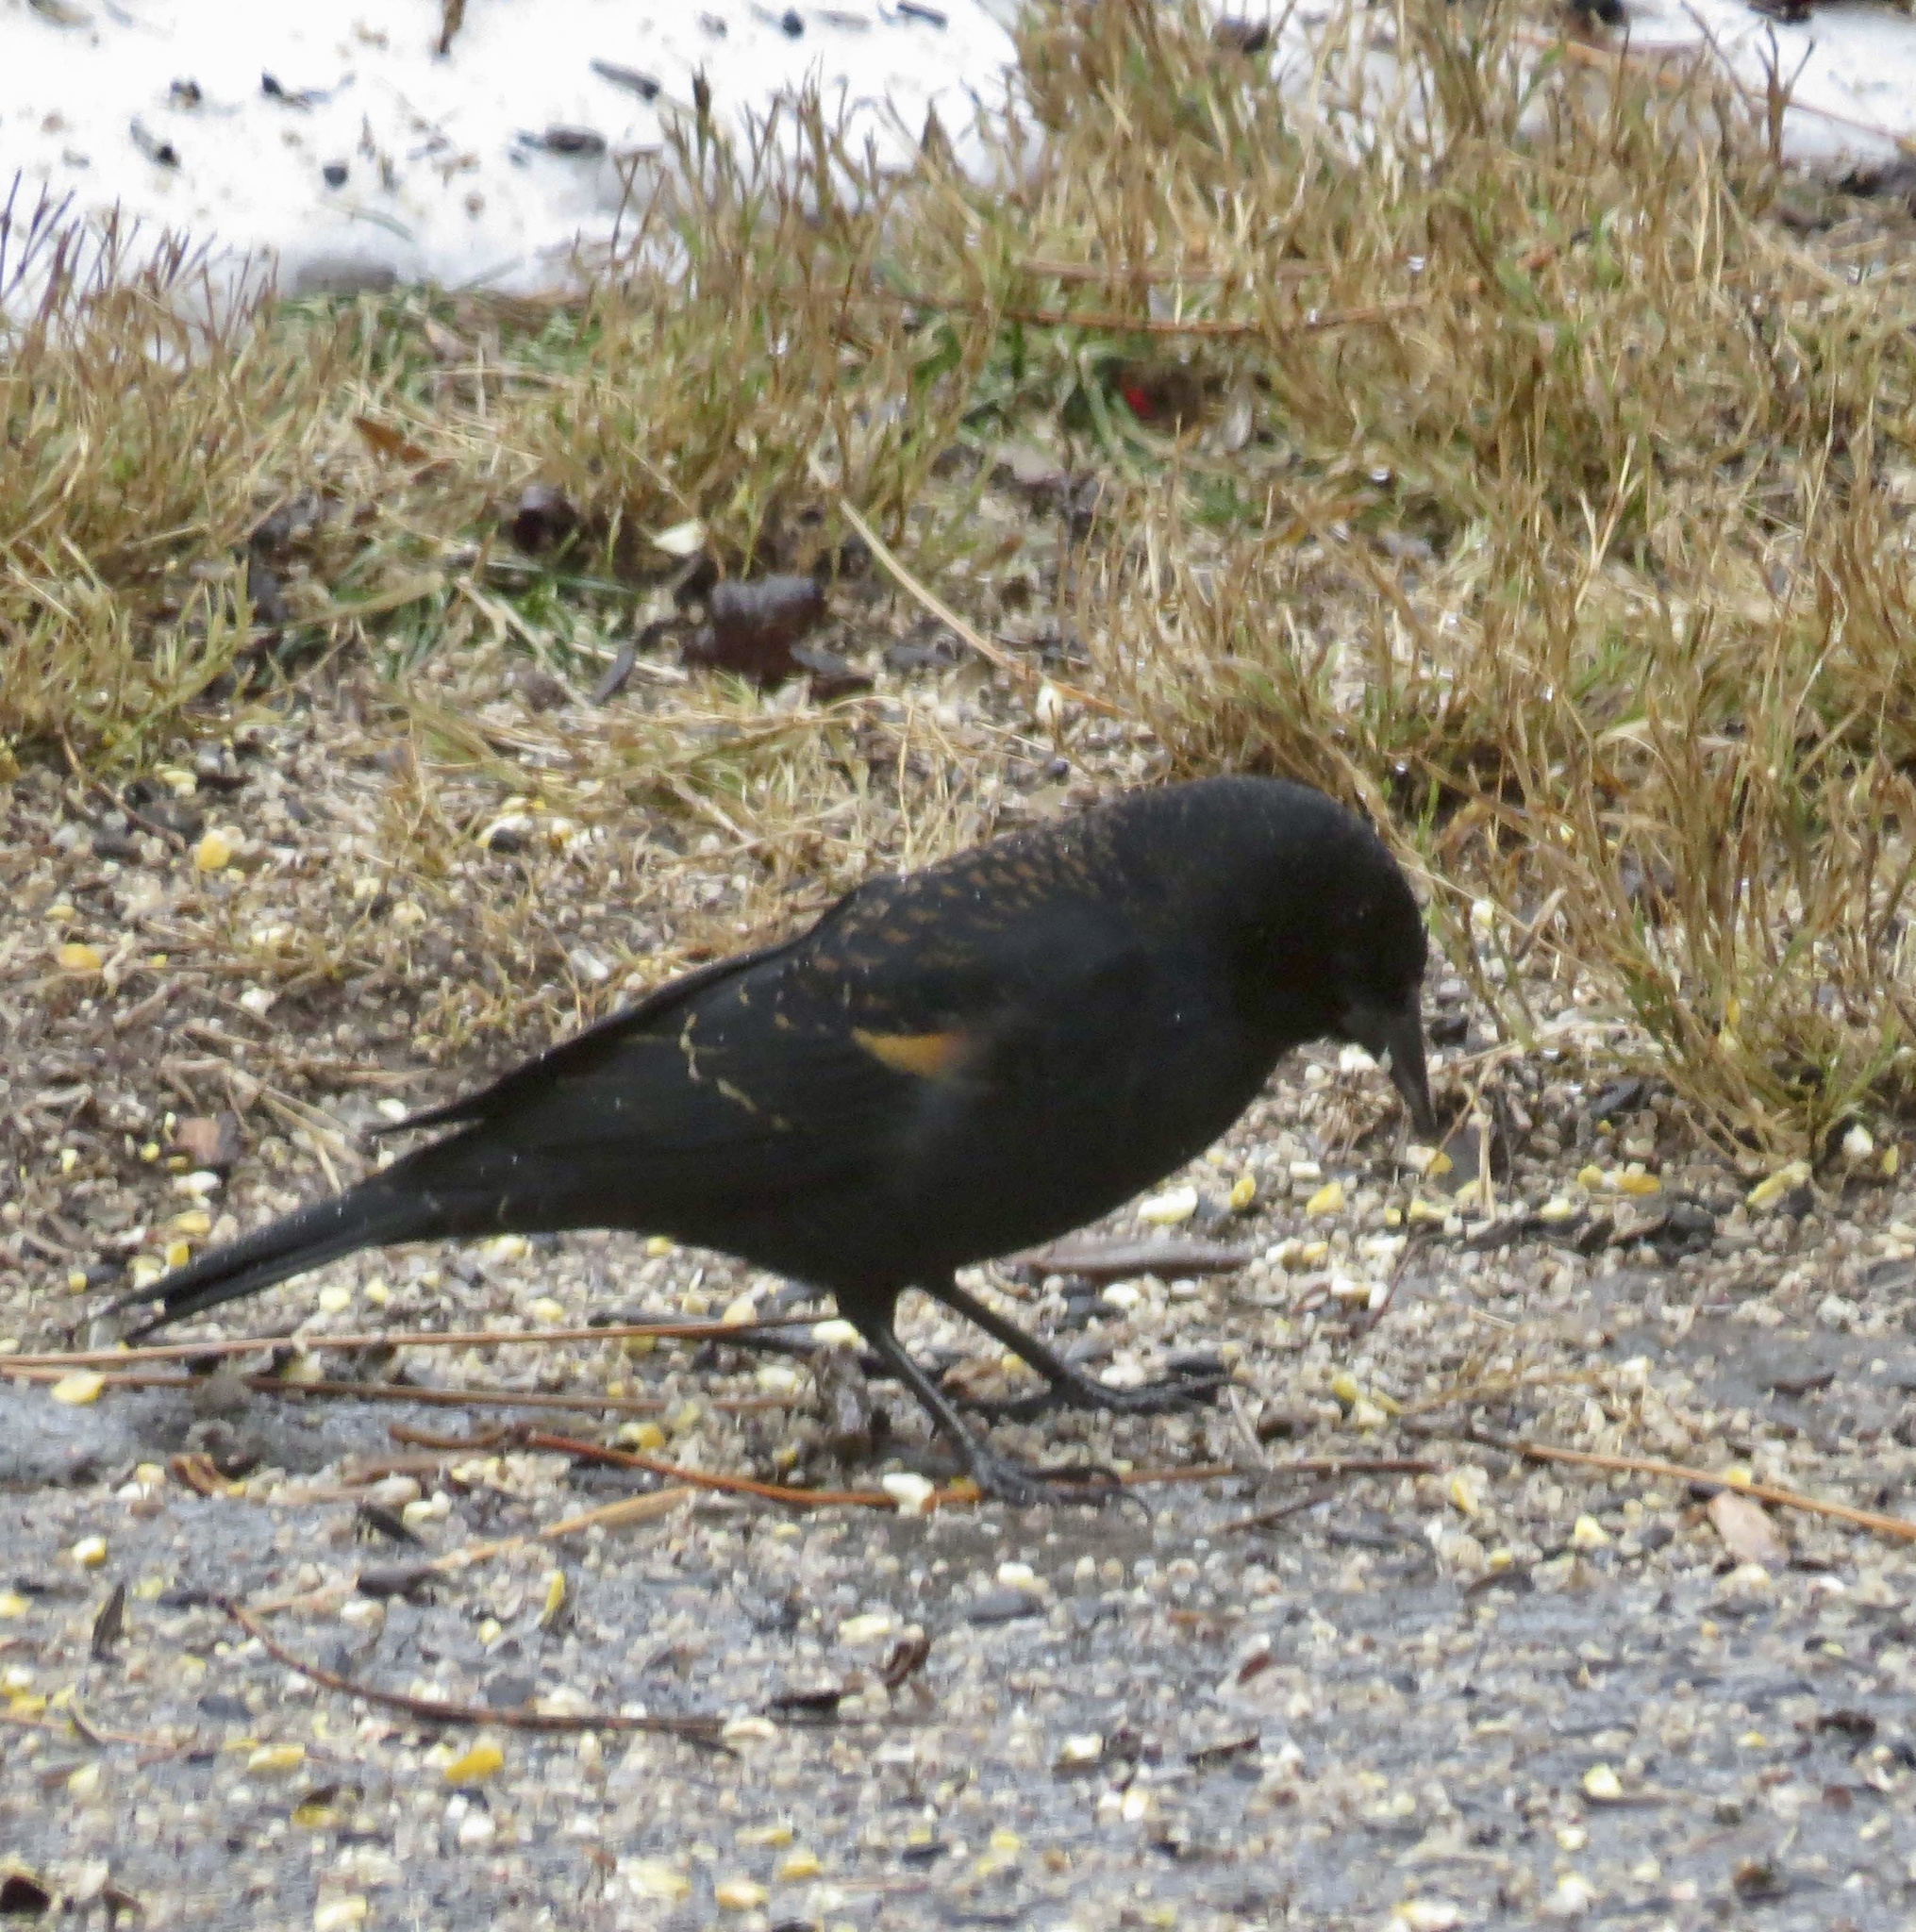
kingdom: Animalia
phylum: Chordata
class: Aves
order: Passeriformes
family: Icteridae
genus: Agelaius
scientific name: Agelaius phoeniceus
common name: Red-winged blackbird
